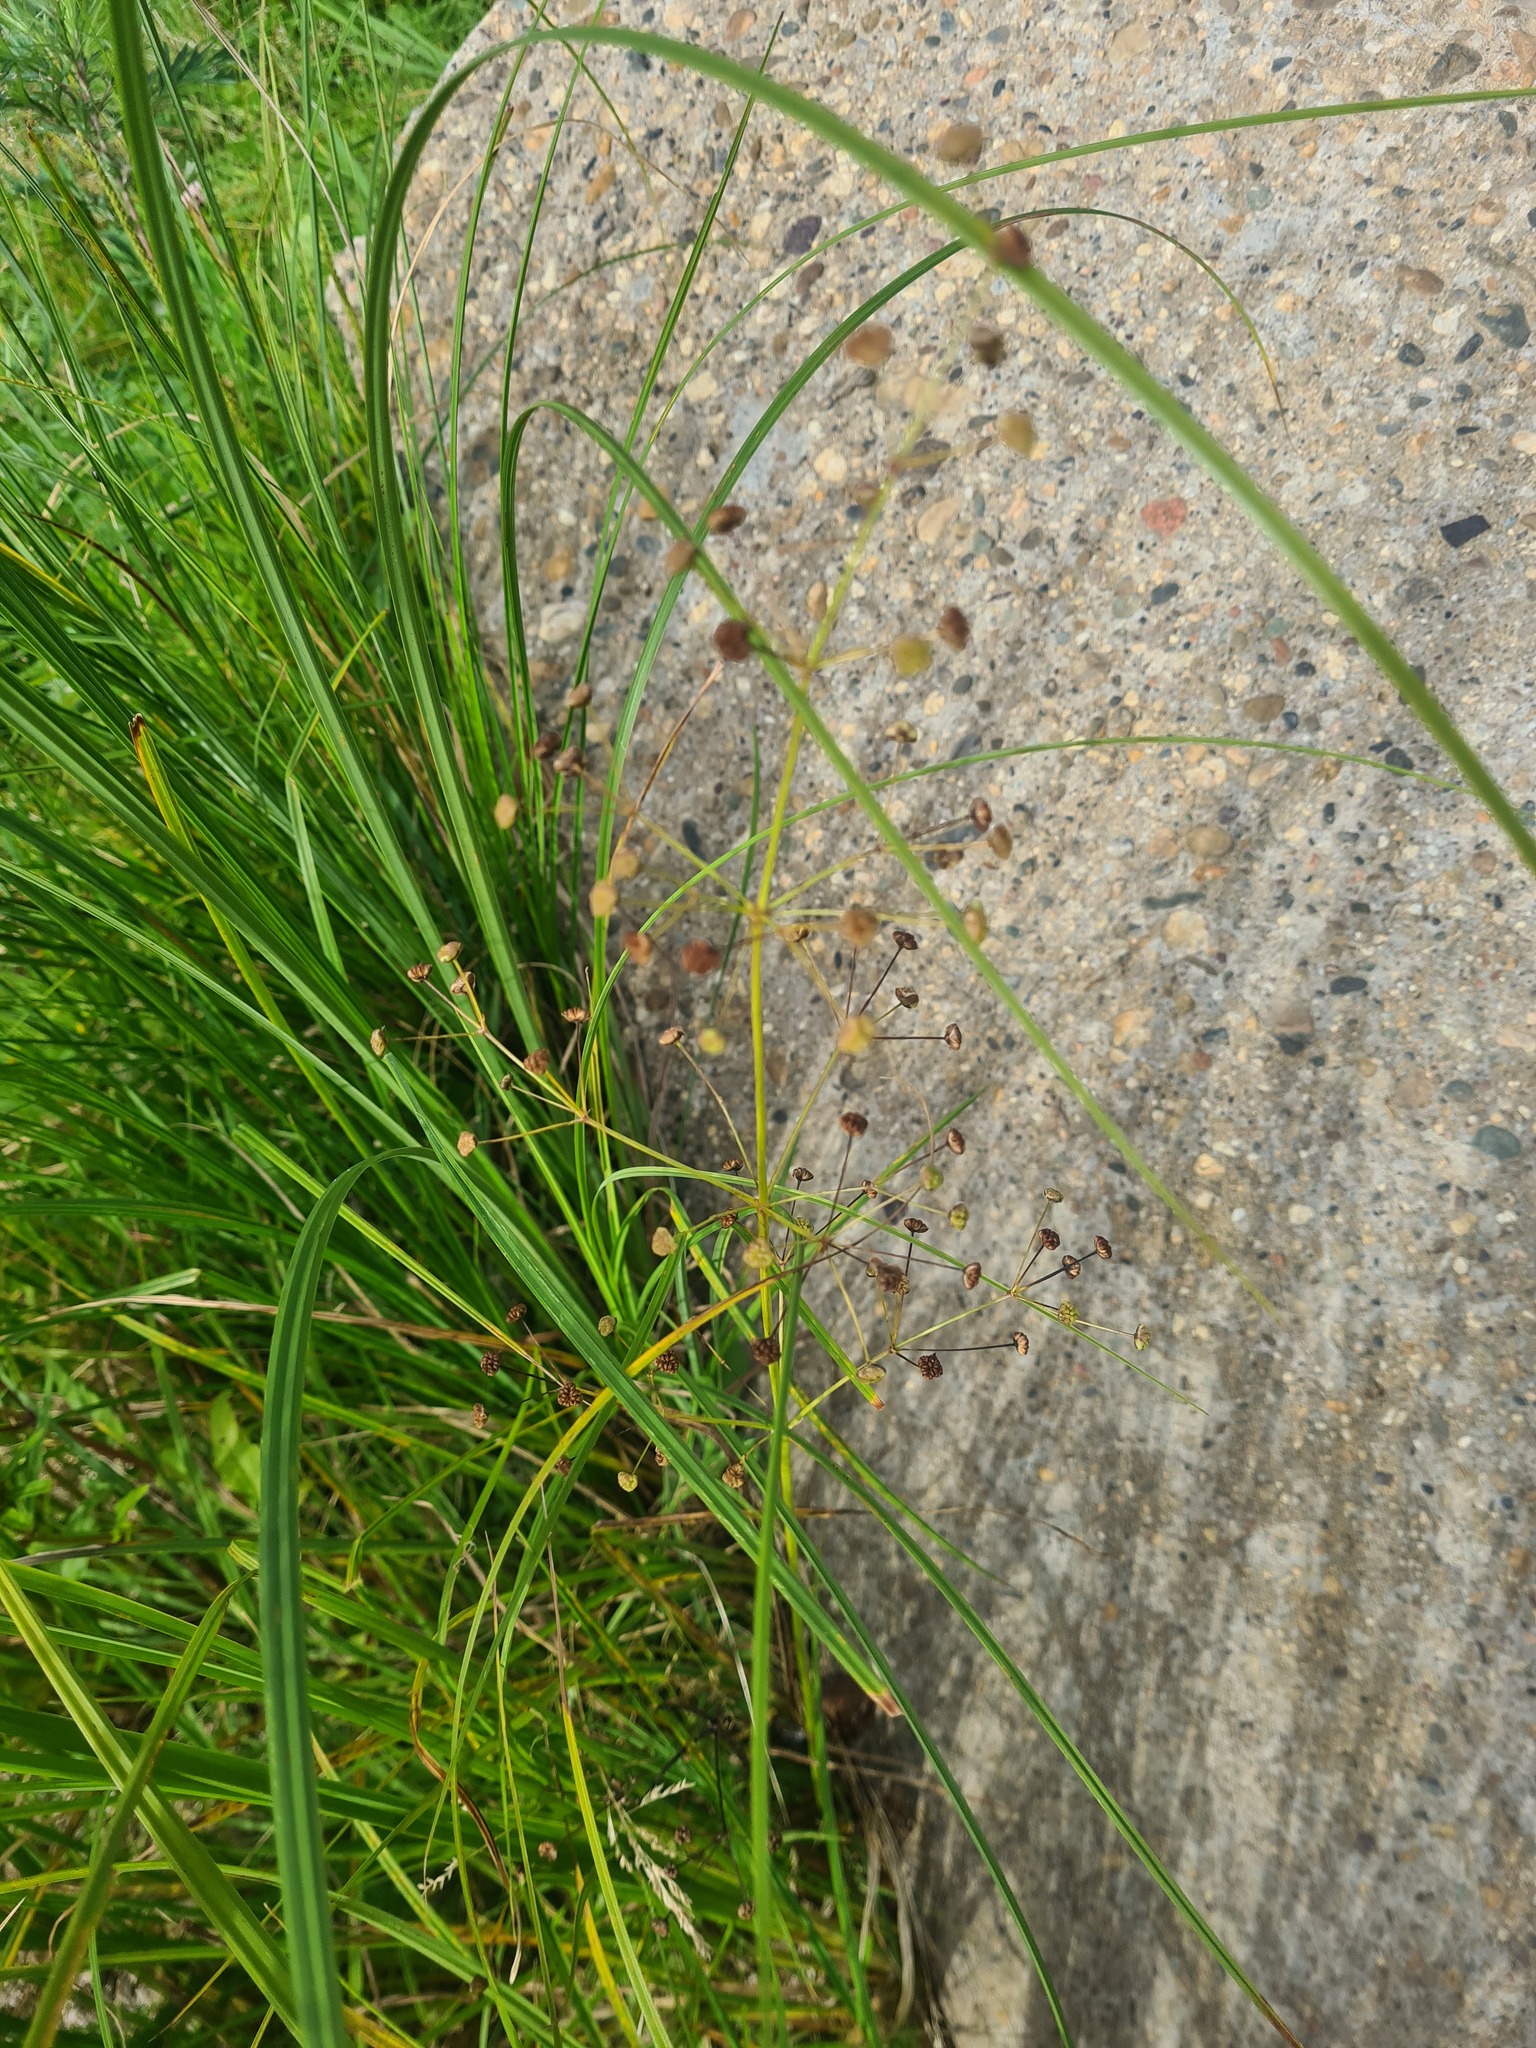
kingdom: Plantae
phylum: Tracheophyta
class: Liliopsida
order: Alismatales
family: Alismataceae
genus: Alisma
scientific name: Alisma plantago-aquatica
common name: Water-plantain
